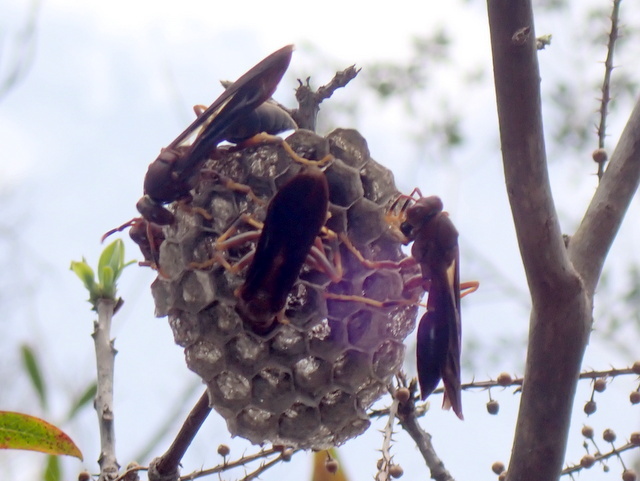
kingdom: Animalia
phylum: Arthropoda
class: Insecta
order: Hymenoptera
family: Eumenidae
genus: Polistes
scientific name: Polistes annularis
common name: Ringed paper wasp
